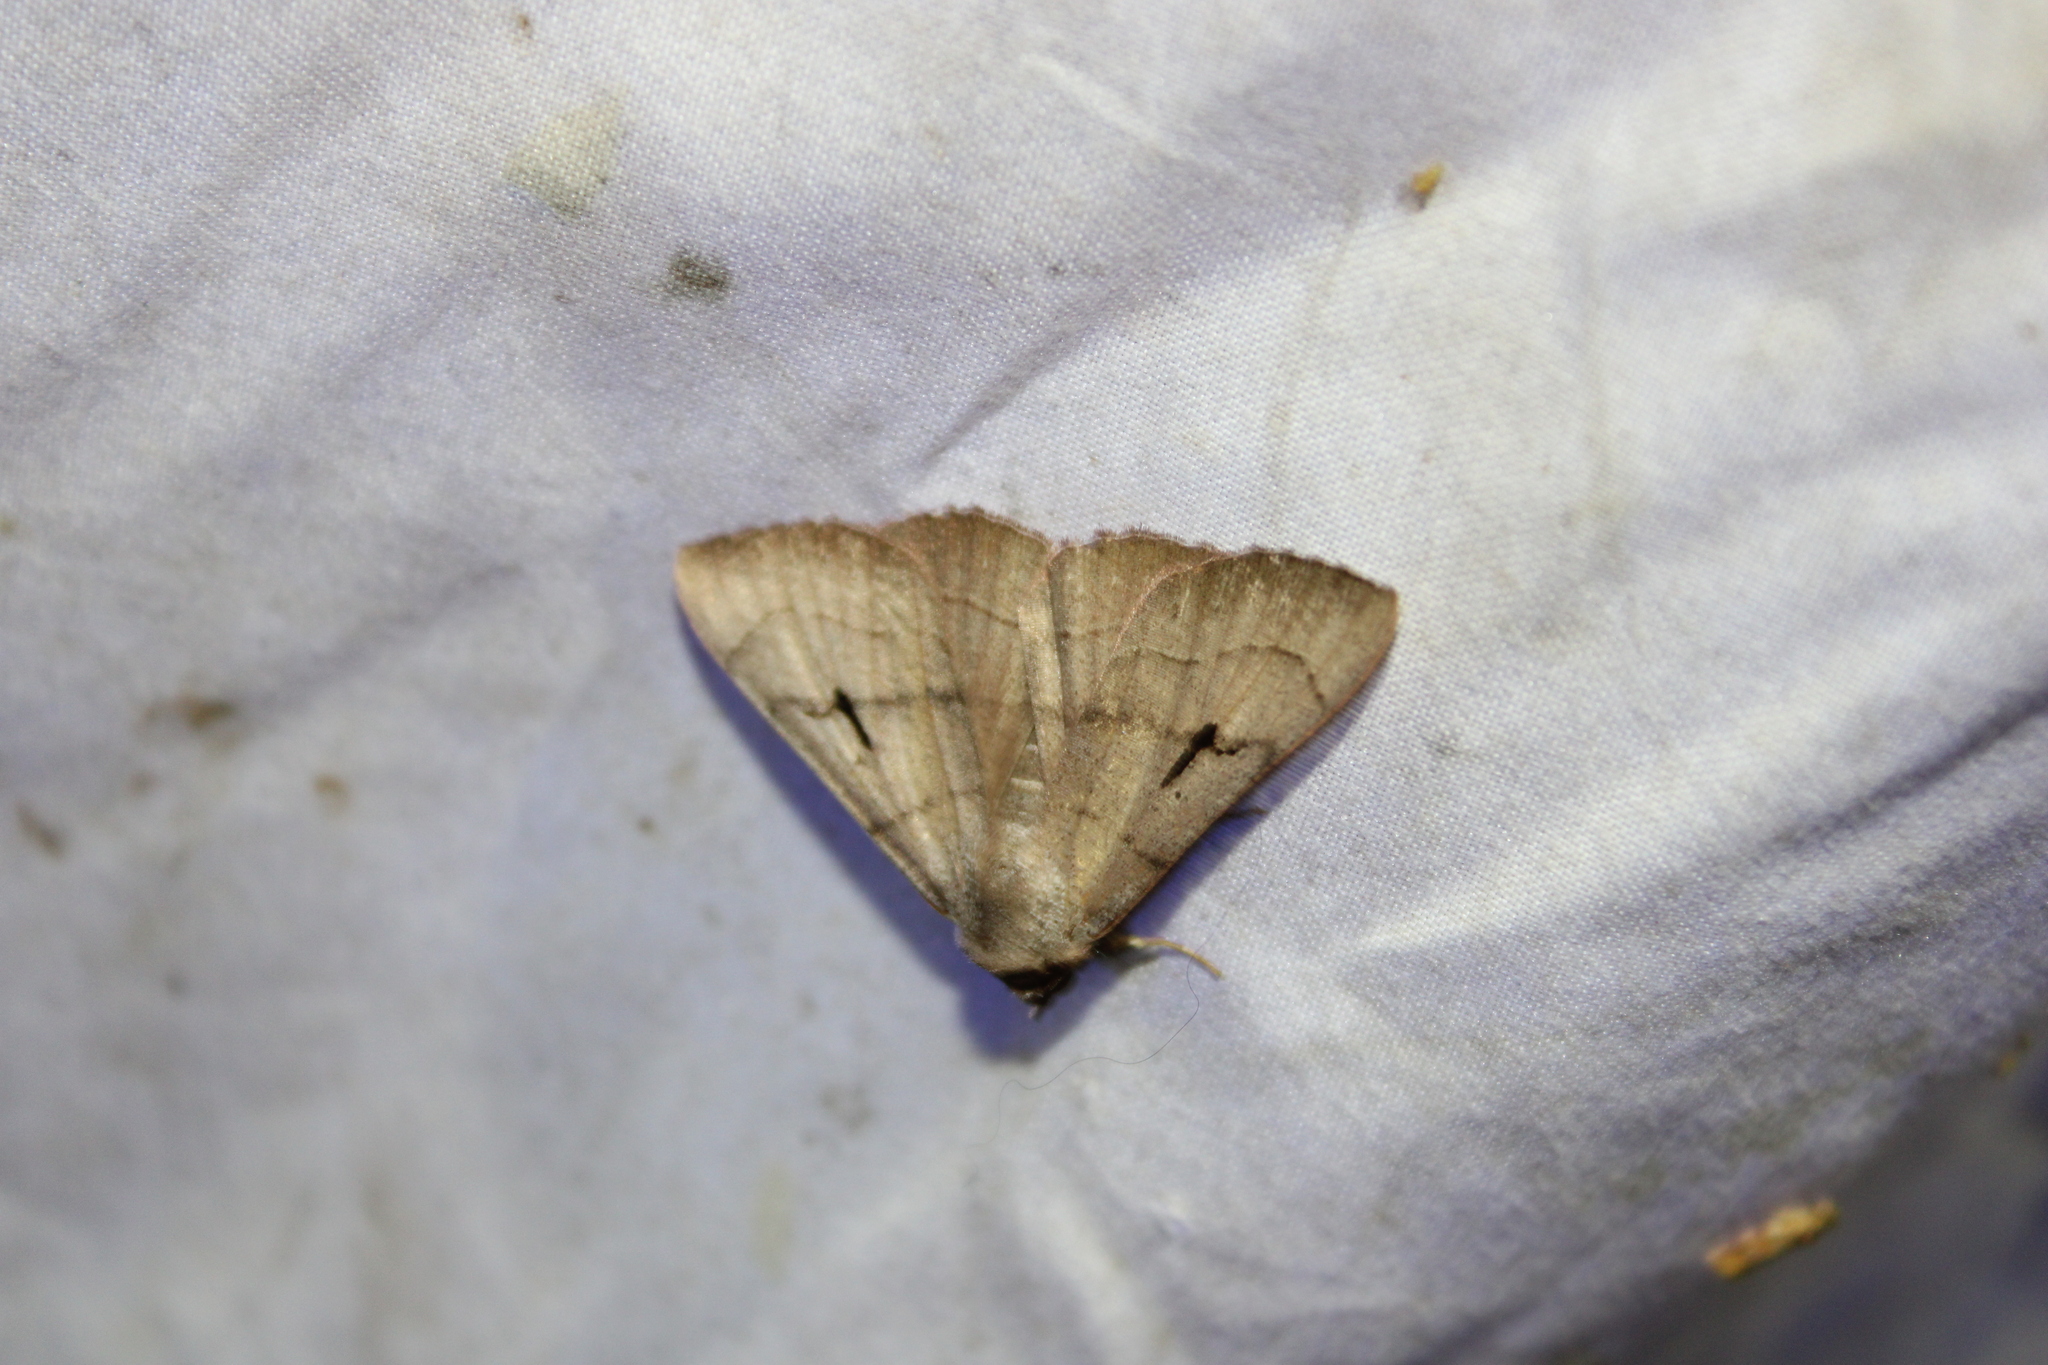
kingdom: Animalia
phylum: Arthropoda
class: Insecta
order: Lepidoptera
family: Erebidae
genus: Panopoda
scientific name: Panopoda carneicosta
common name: Brown panopoda moth
